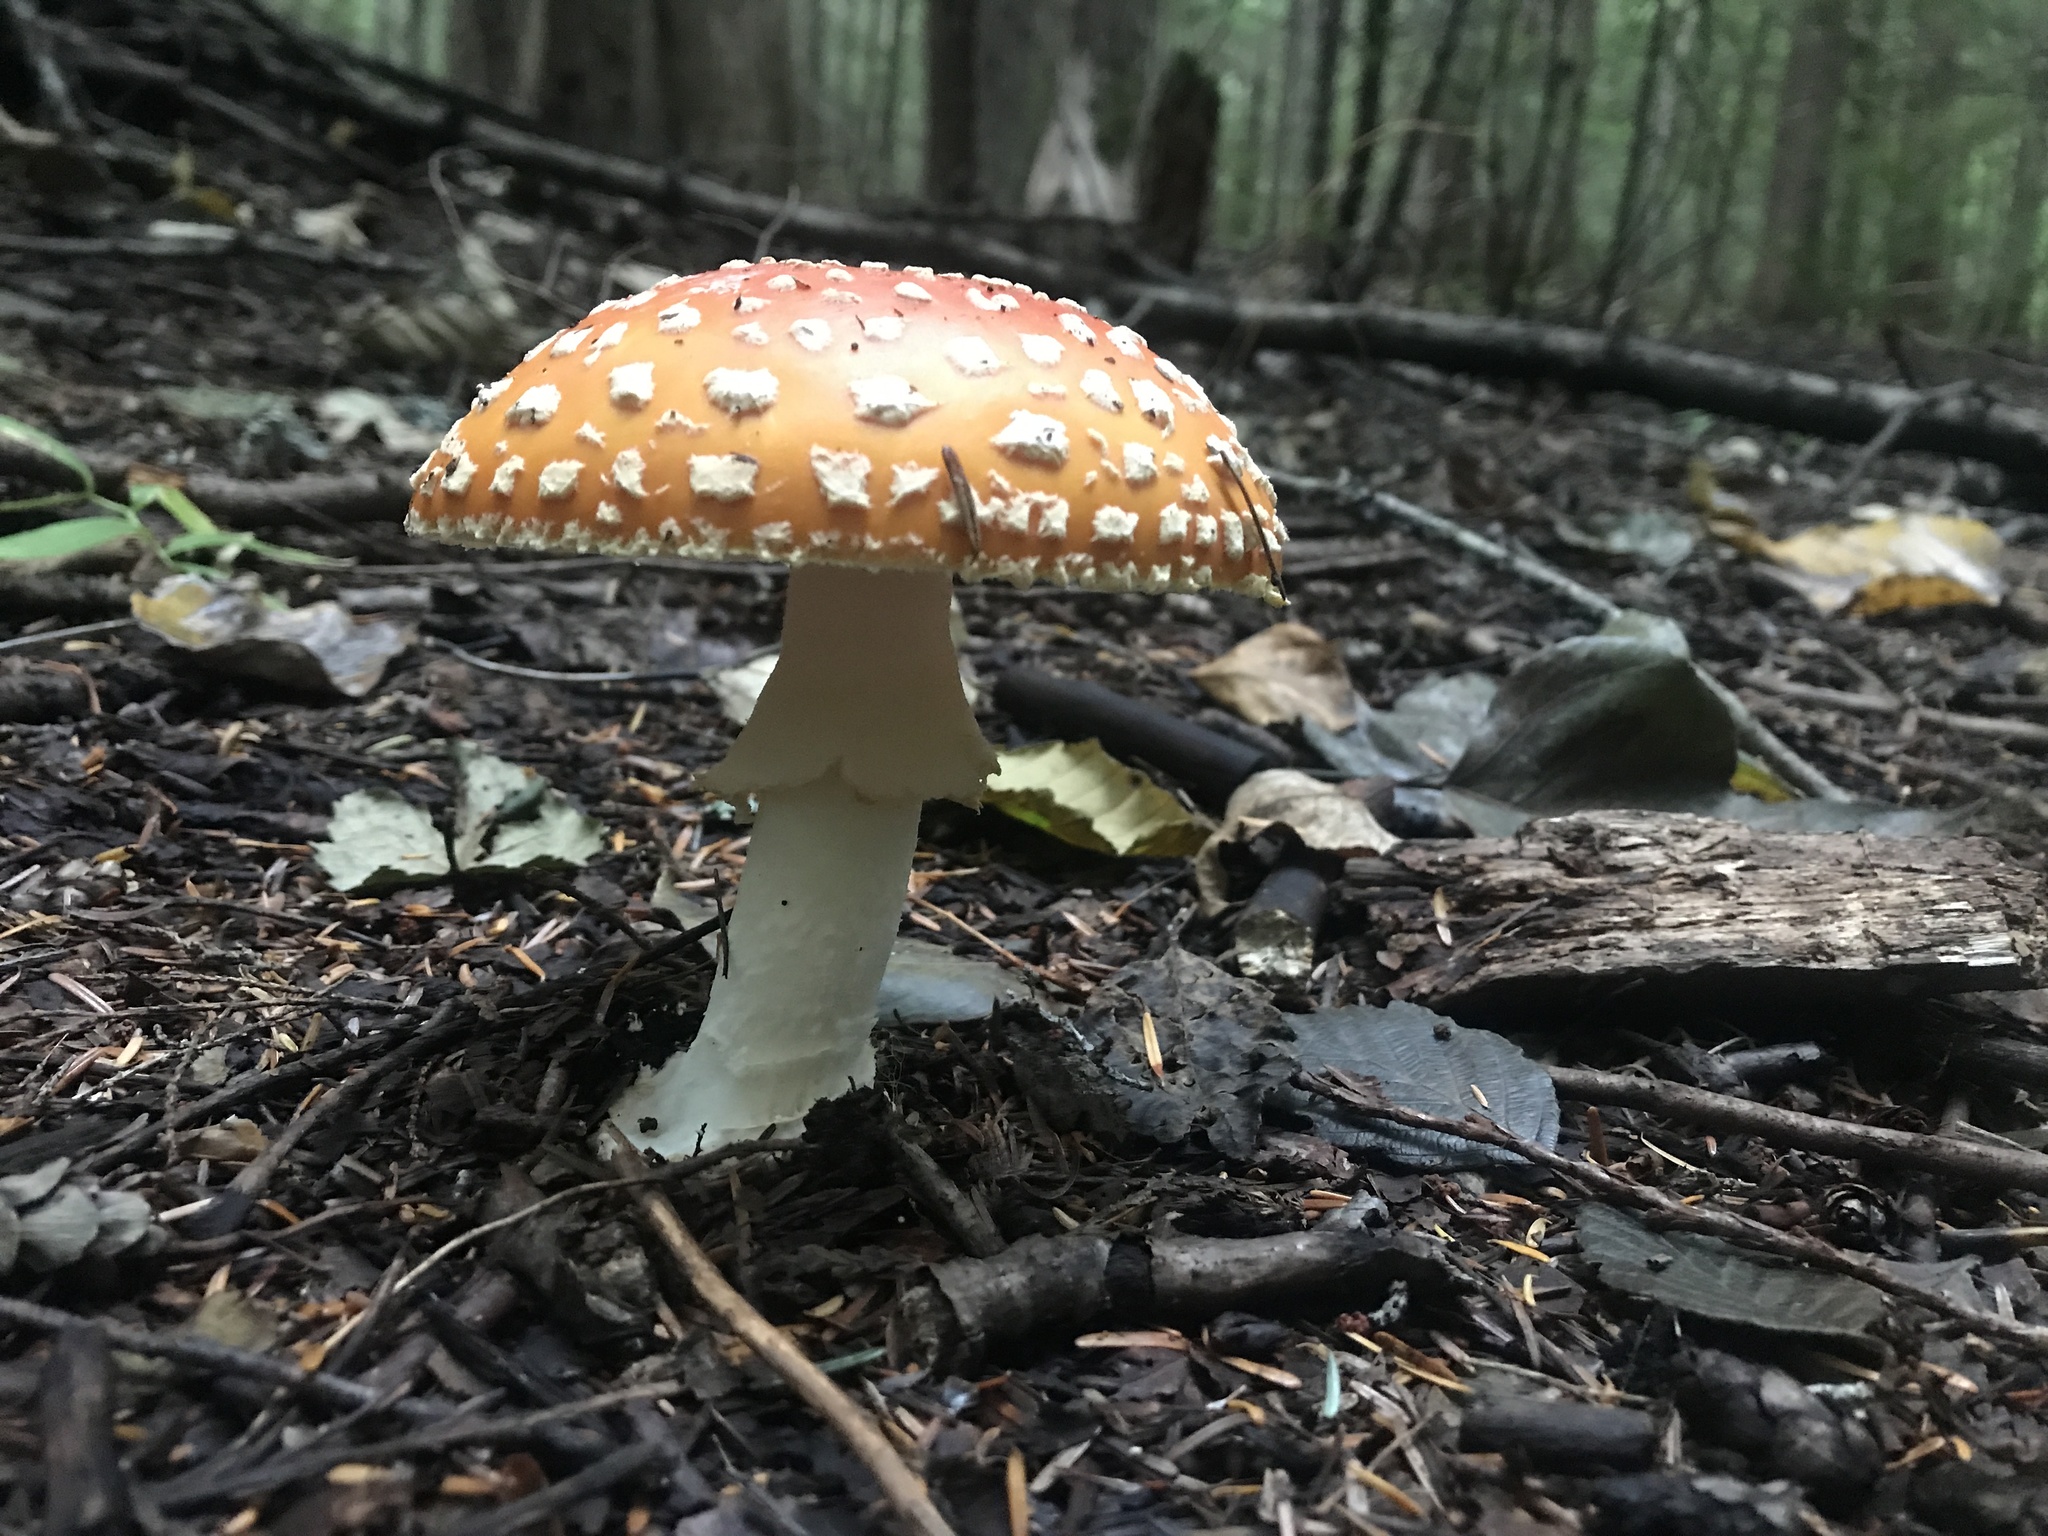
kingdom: Fungi
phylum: Basidiomycota
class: Agaricomycetes
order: Agaricales
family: Amanitaceae
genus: Amanita
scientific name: Amanita muscaria
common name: Fly agaric
